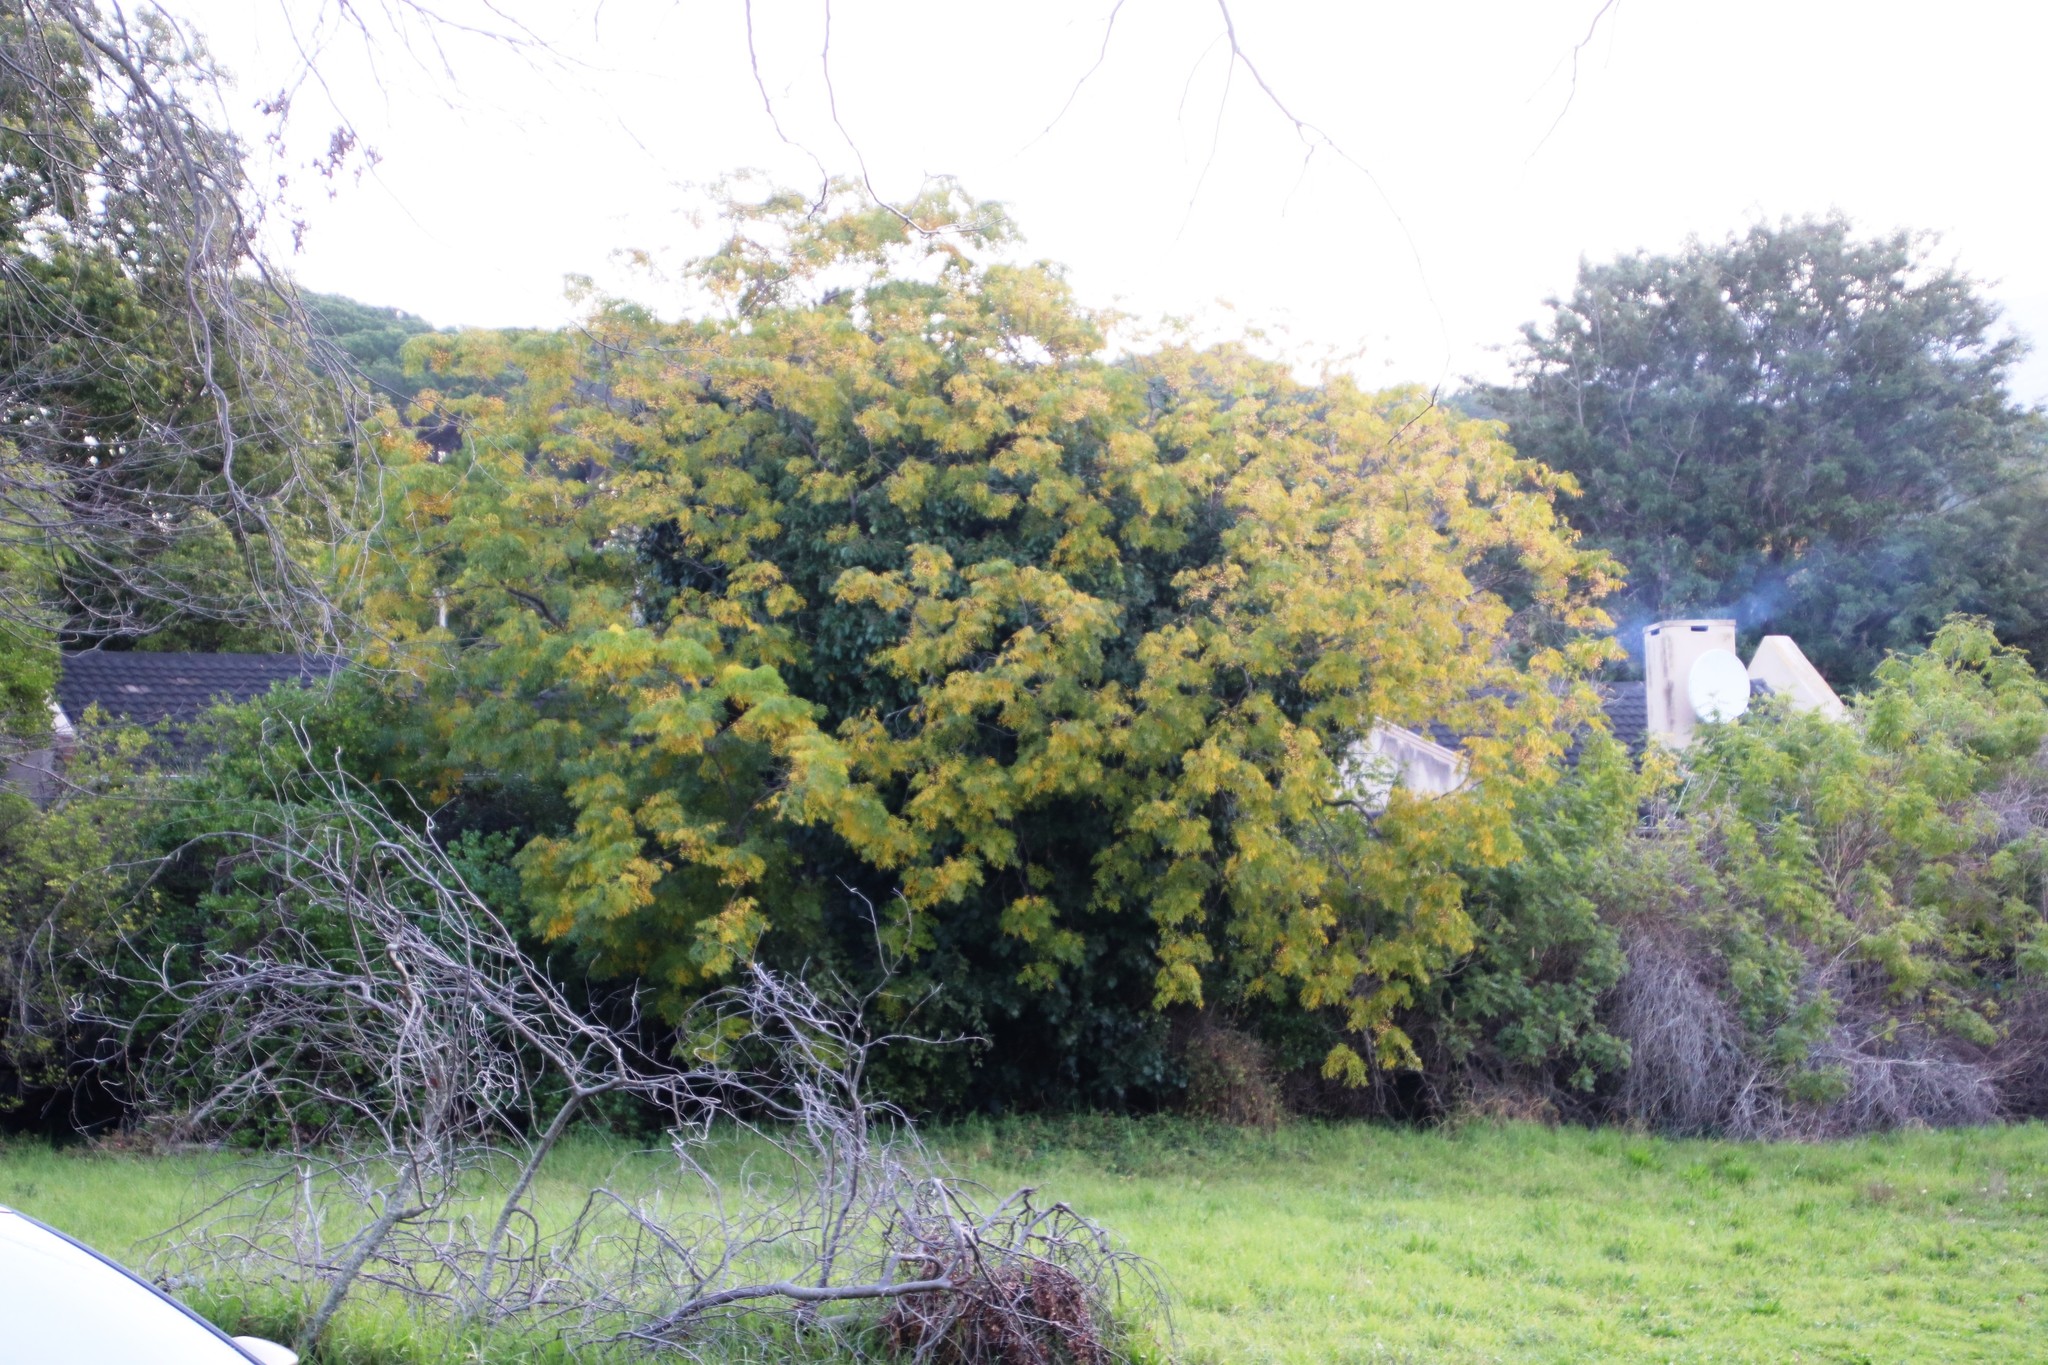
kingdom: Plantae
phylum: Tracheophyta
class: Magnoliopsida
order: Sapindales
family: Meliaceae
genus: Melia
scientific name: Melia azedarach
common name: Chinaberrytree
